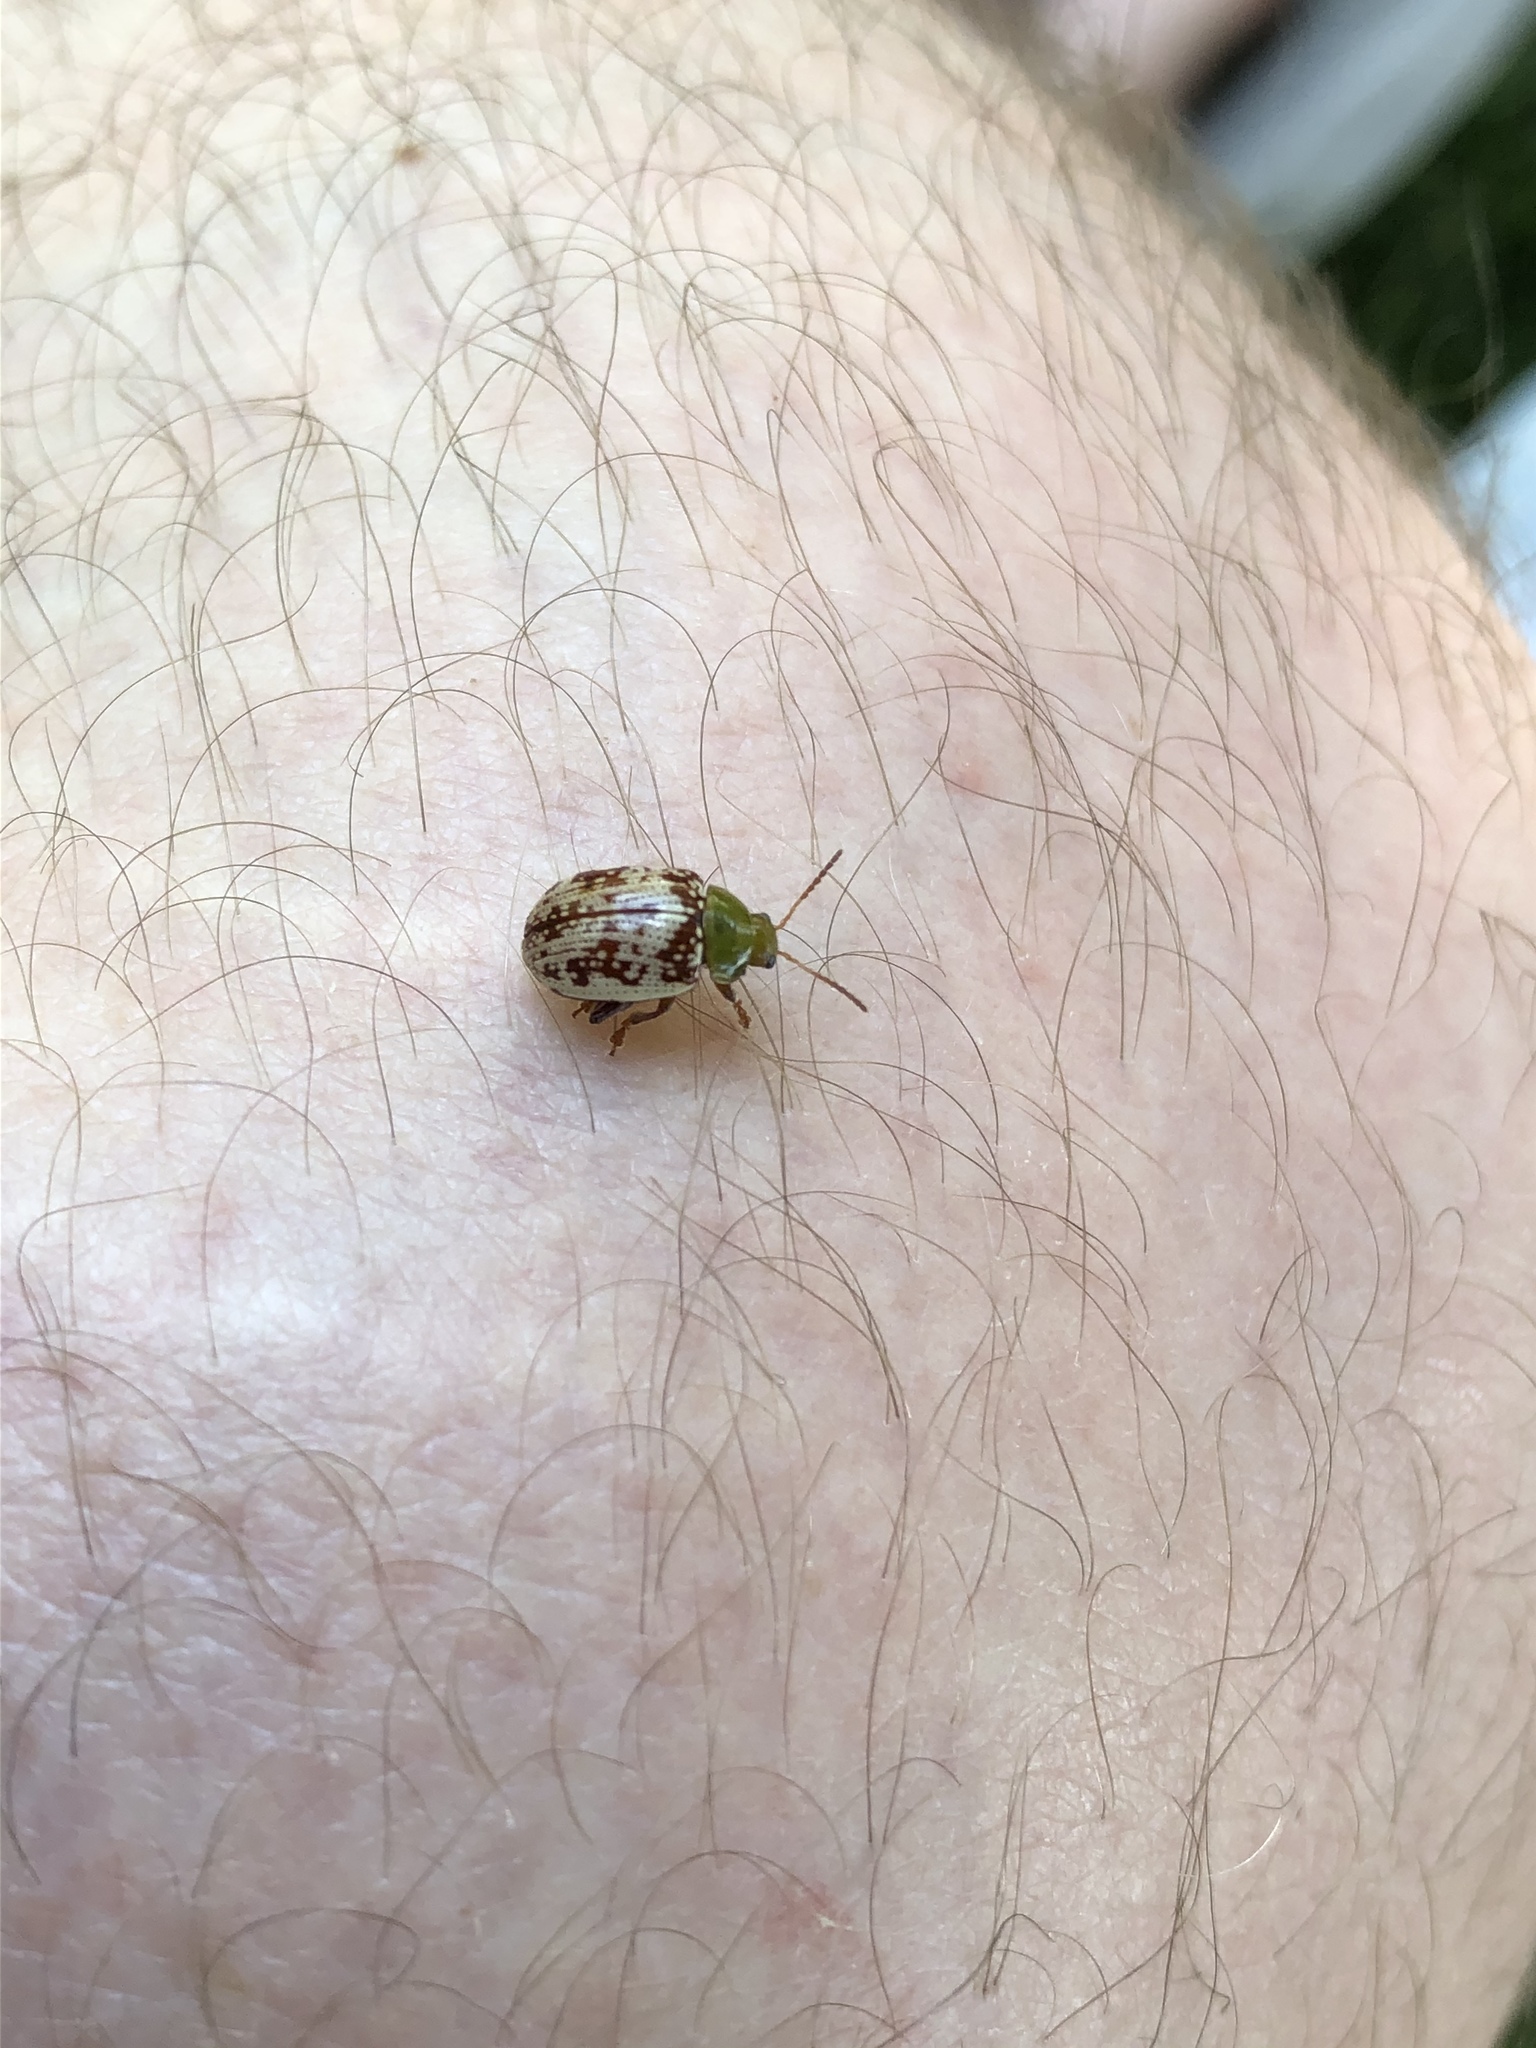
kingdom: Animalia
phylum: Arthropoda
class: Insecta
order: Coleoptera
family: Chrysomelidae
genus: Blepharida
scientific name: Blepharida rhois
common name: Sumac flea beetle
